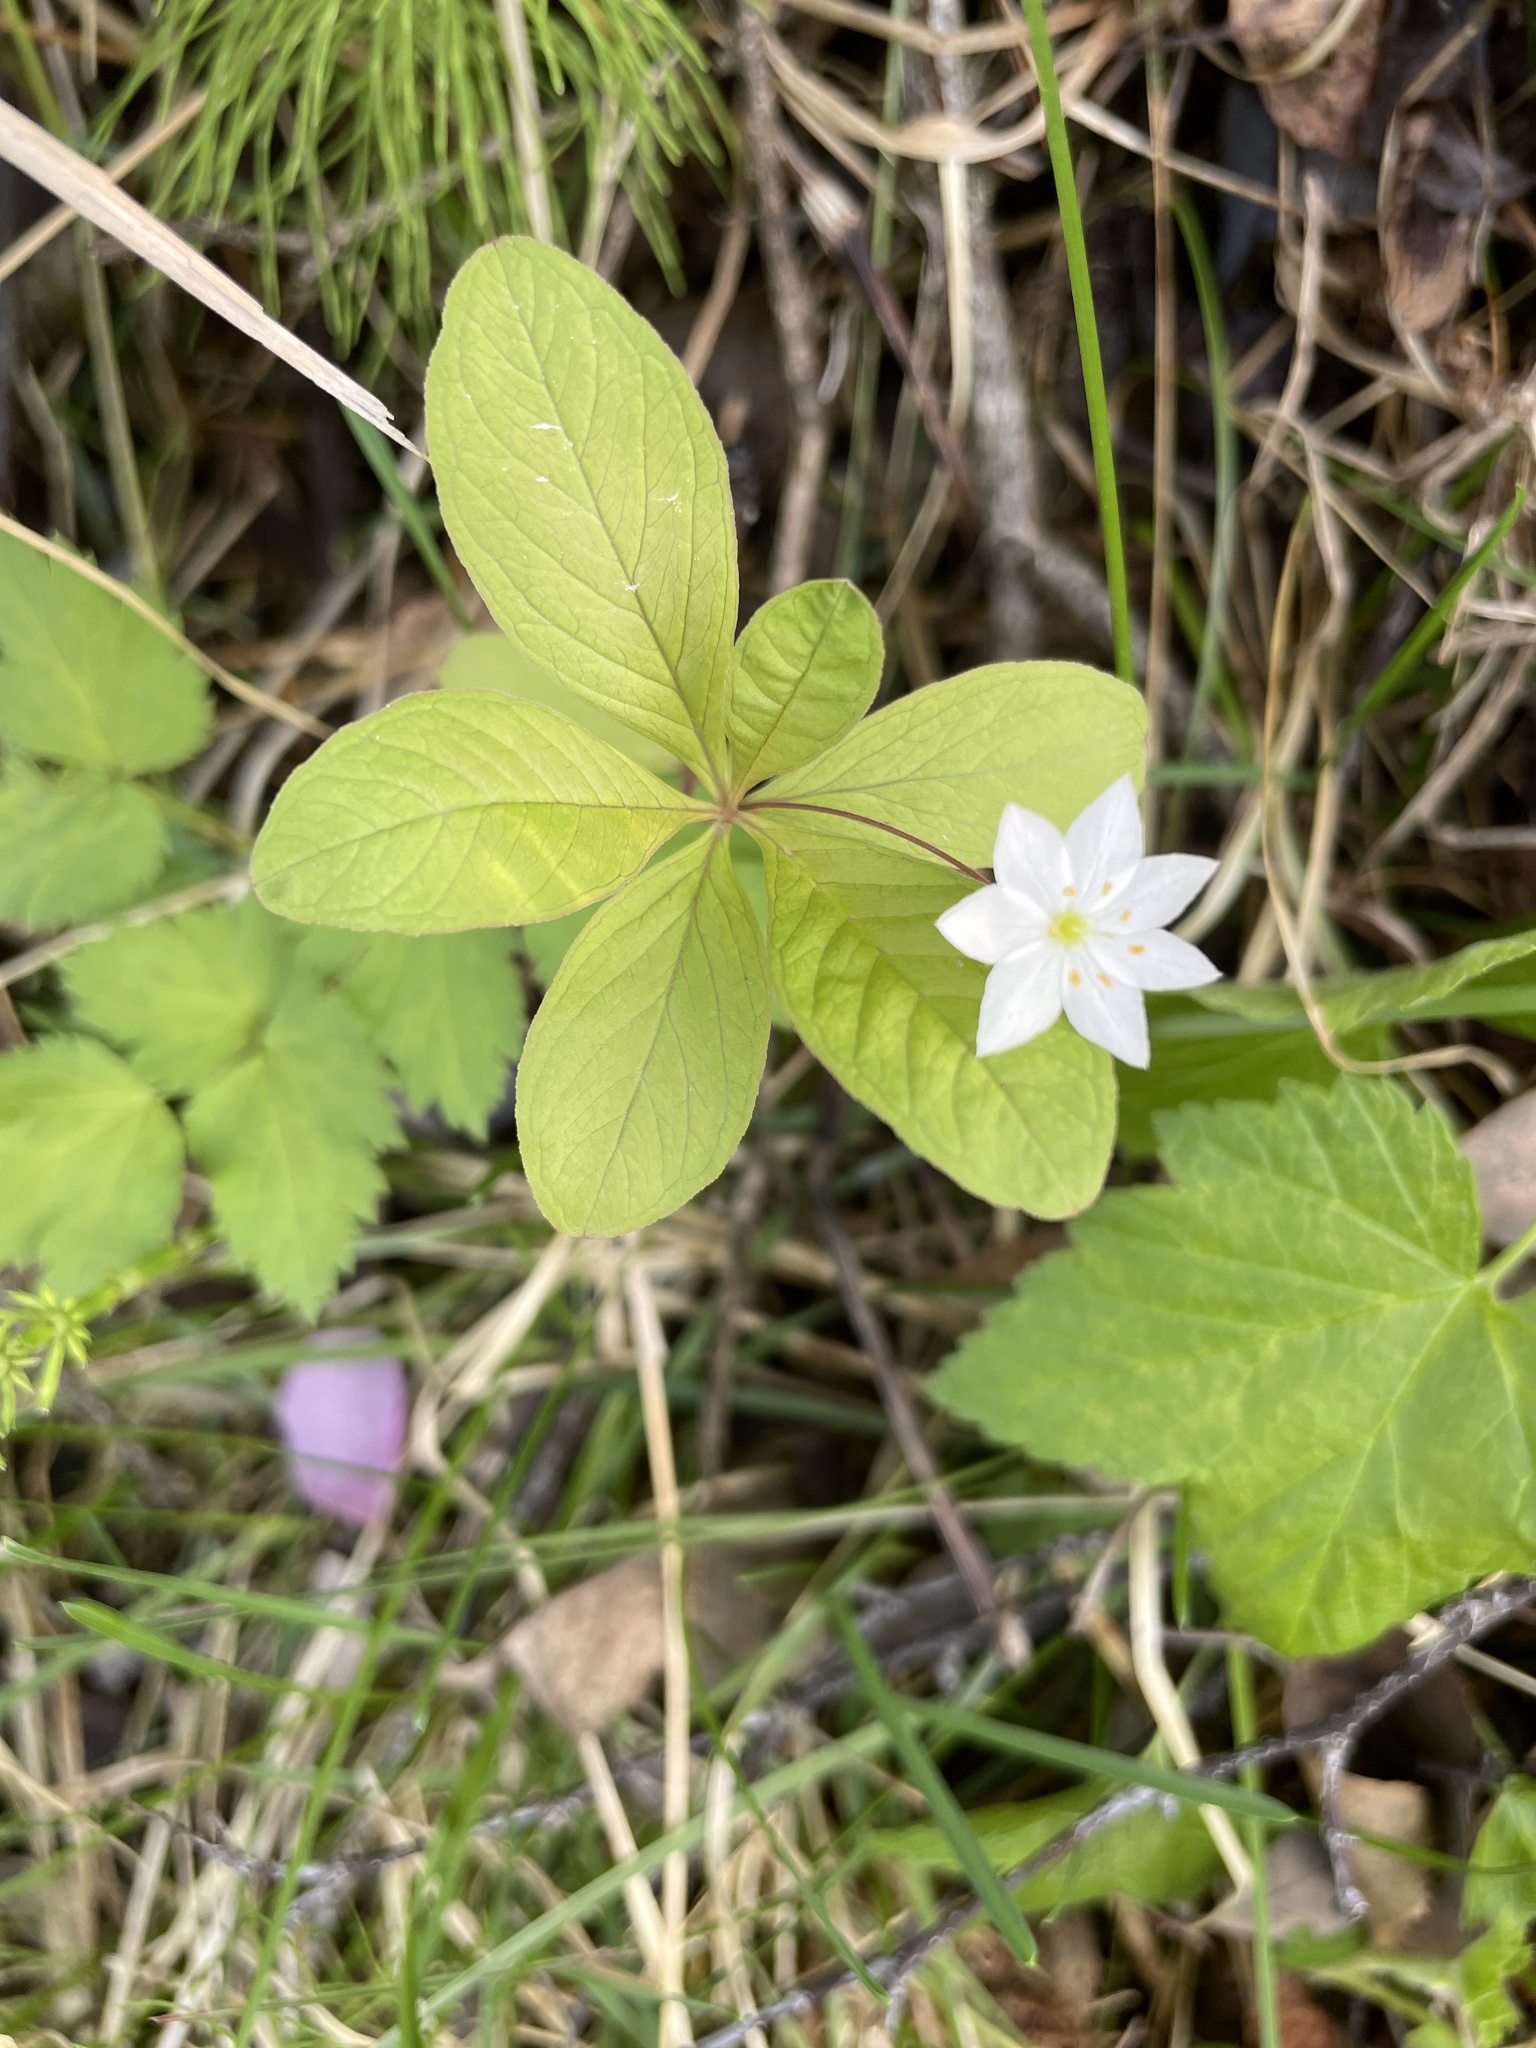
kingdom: Plantae
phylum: Tracheophyta
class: Magnoliopsida
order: Ericales
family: Primulaceae
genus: Lysimachia
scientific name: Lysimachia europaea
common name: Arctic starflower
